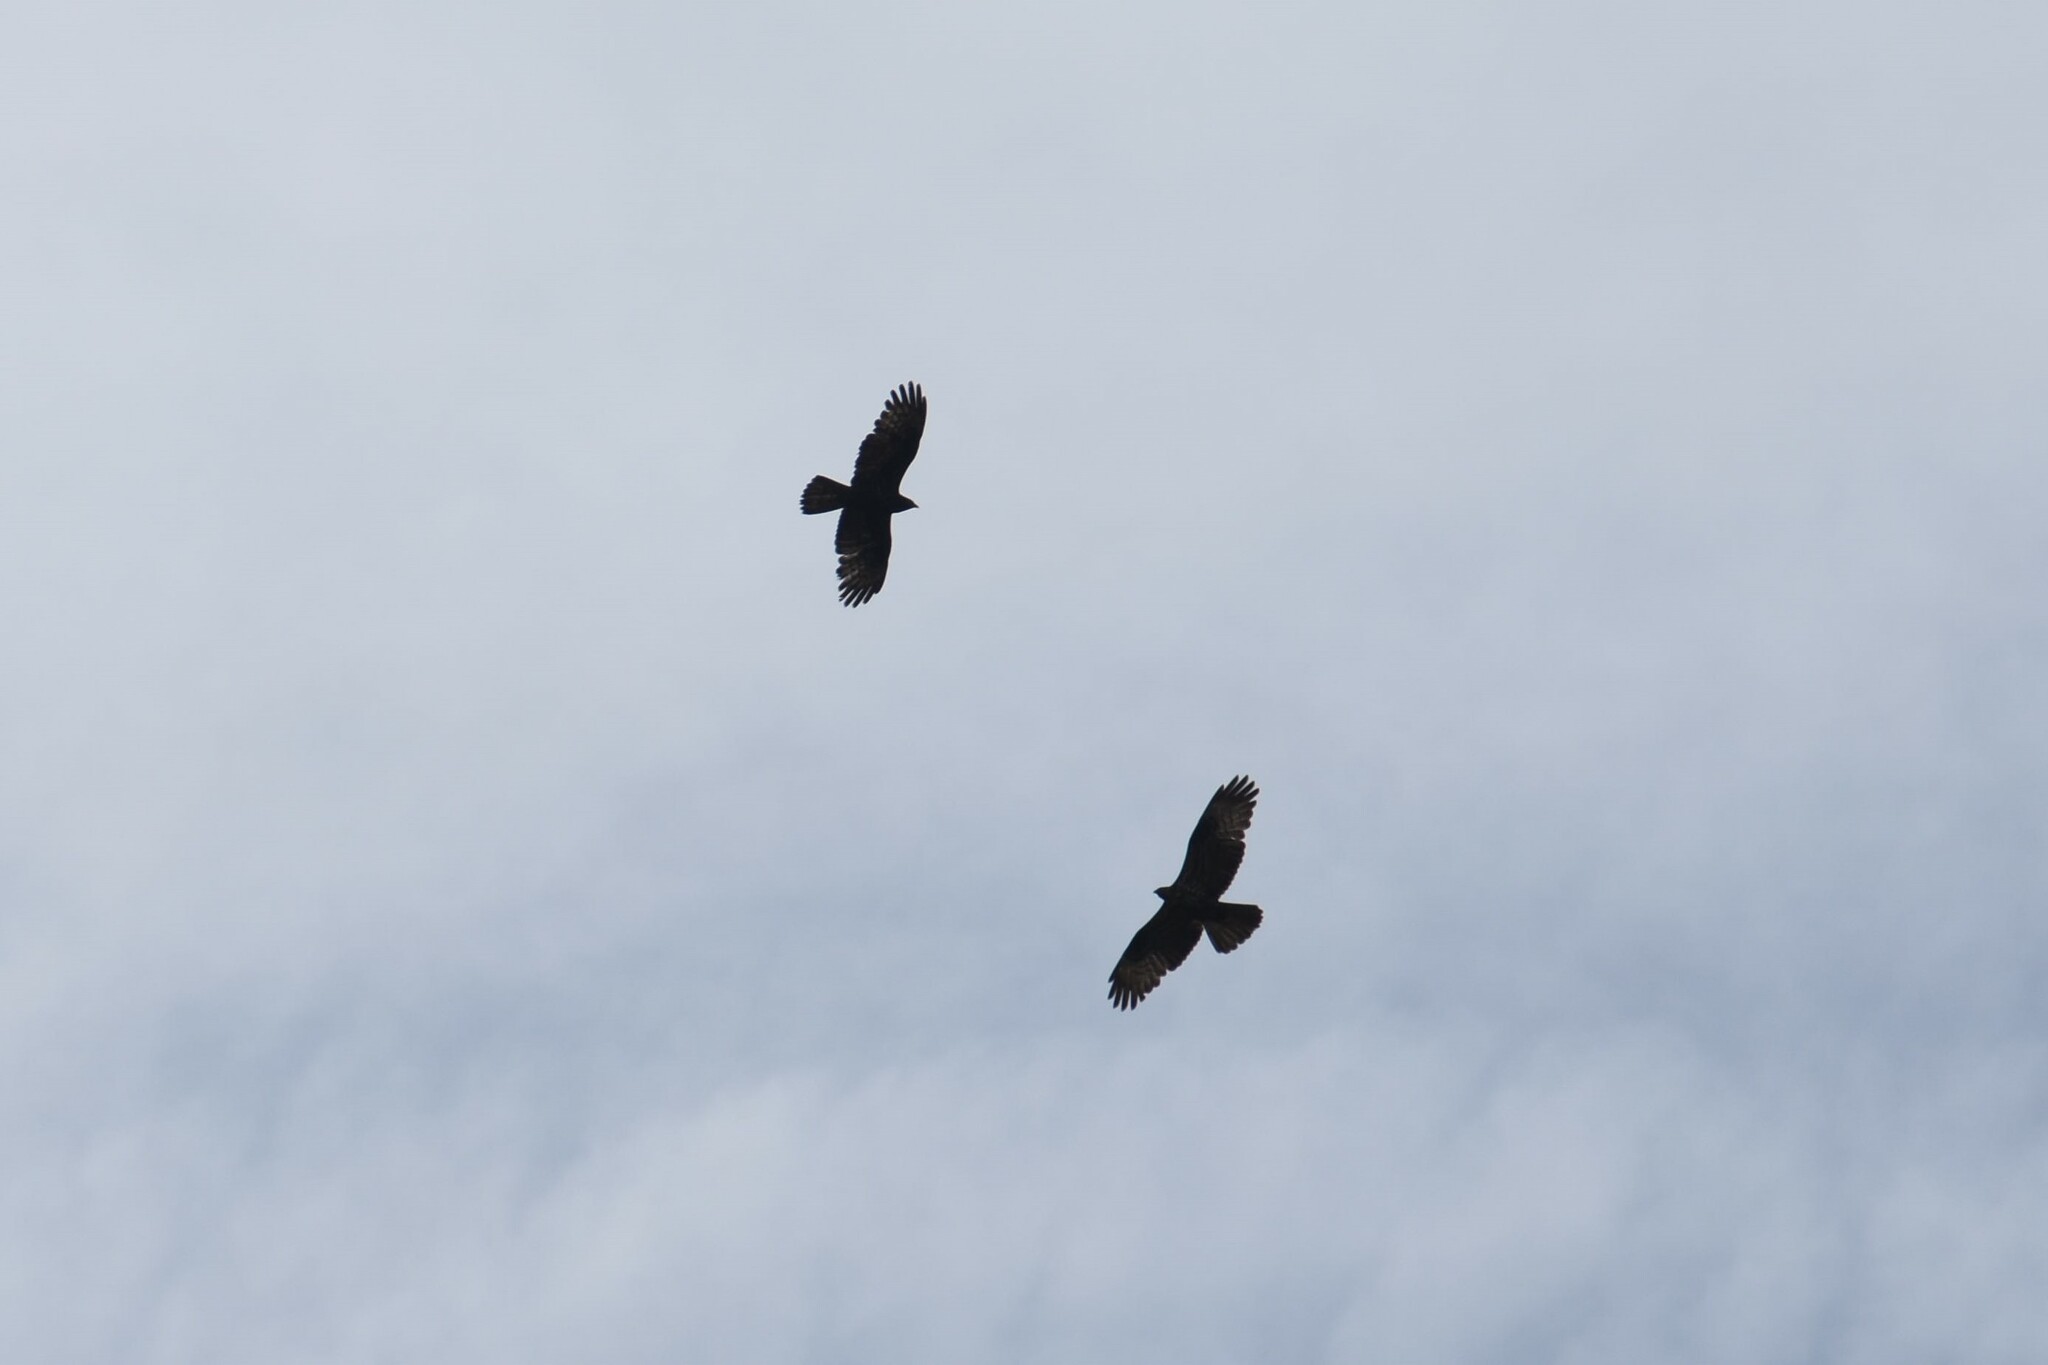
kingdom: Animalia
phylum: Chordata
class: Aves
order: Accipitriformes
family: Accipitridae
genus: Pernis
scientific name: Pernis apivorus
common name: European honey buzzard
